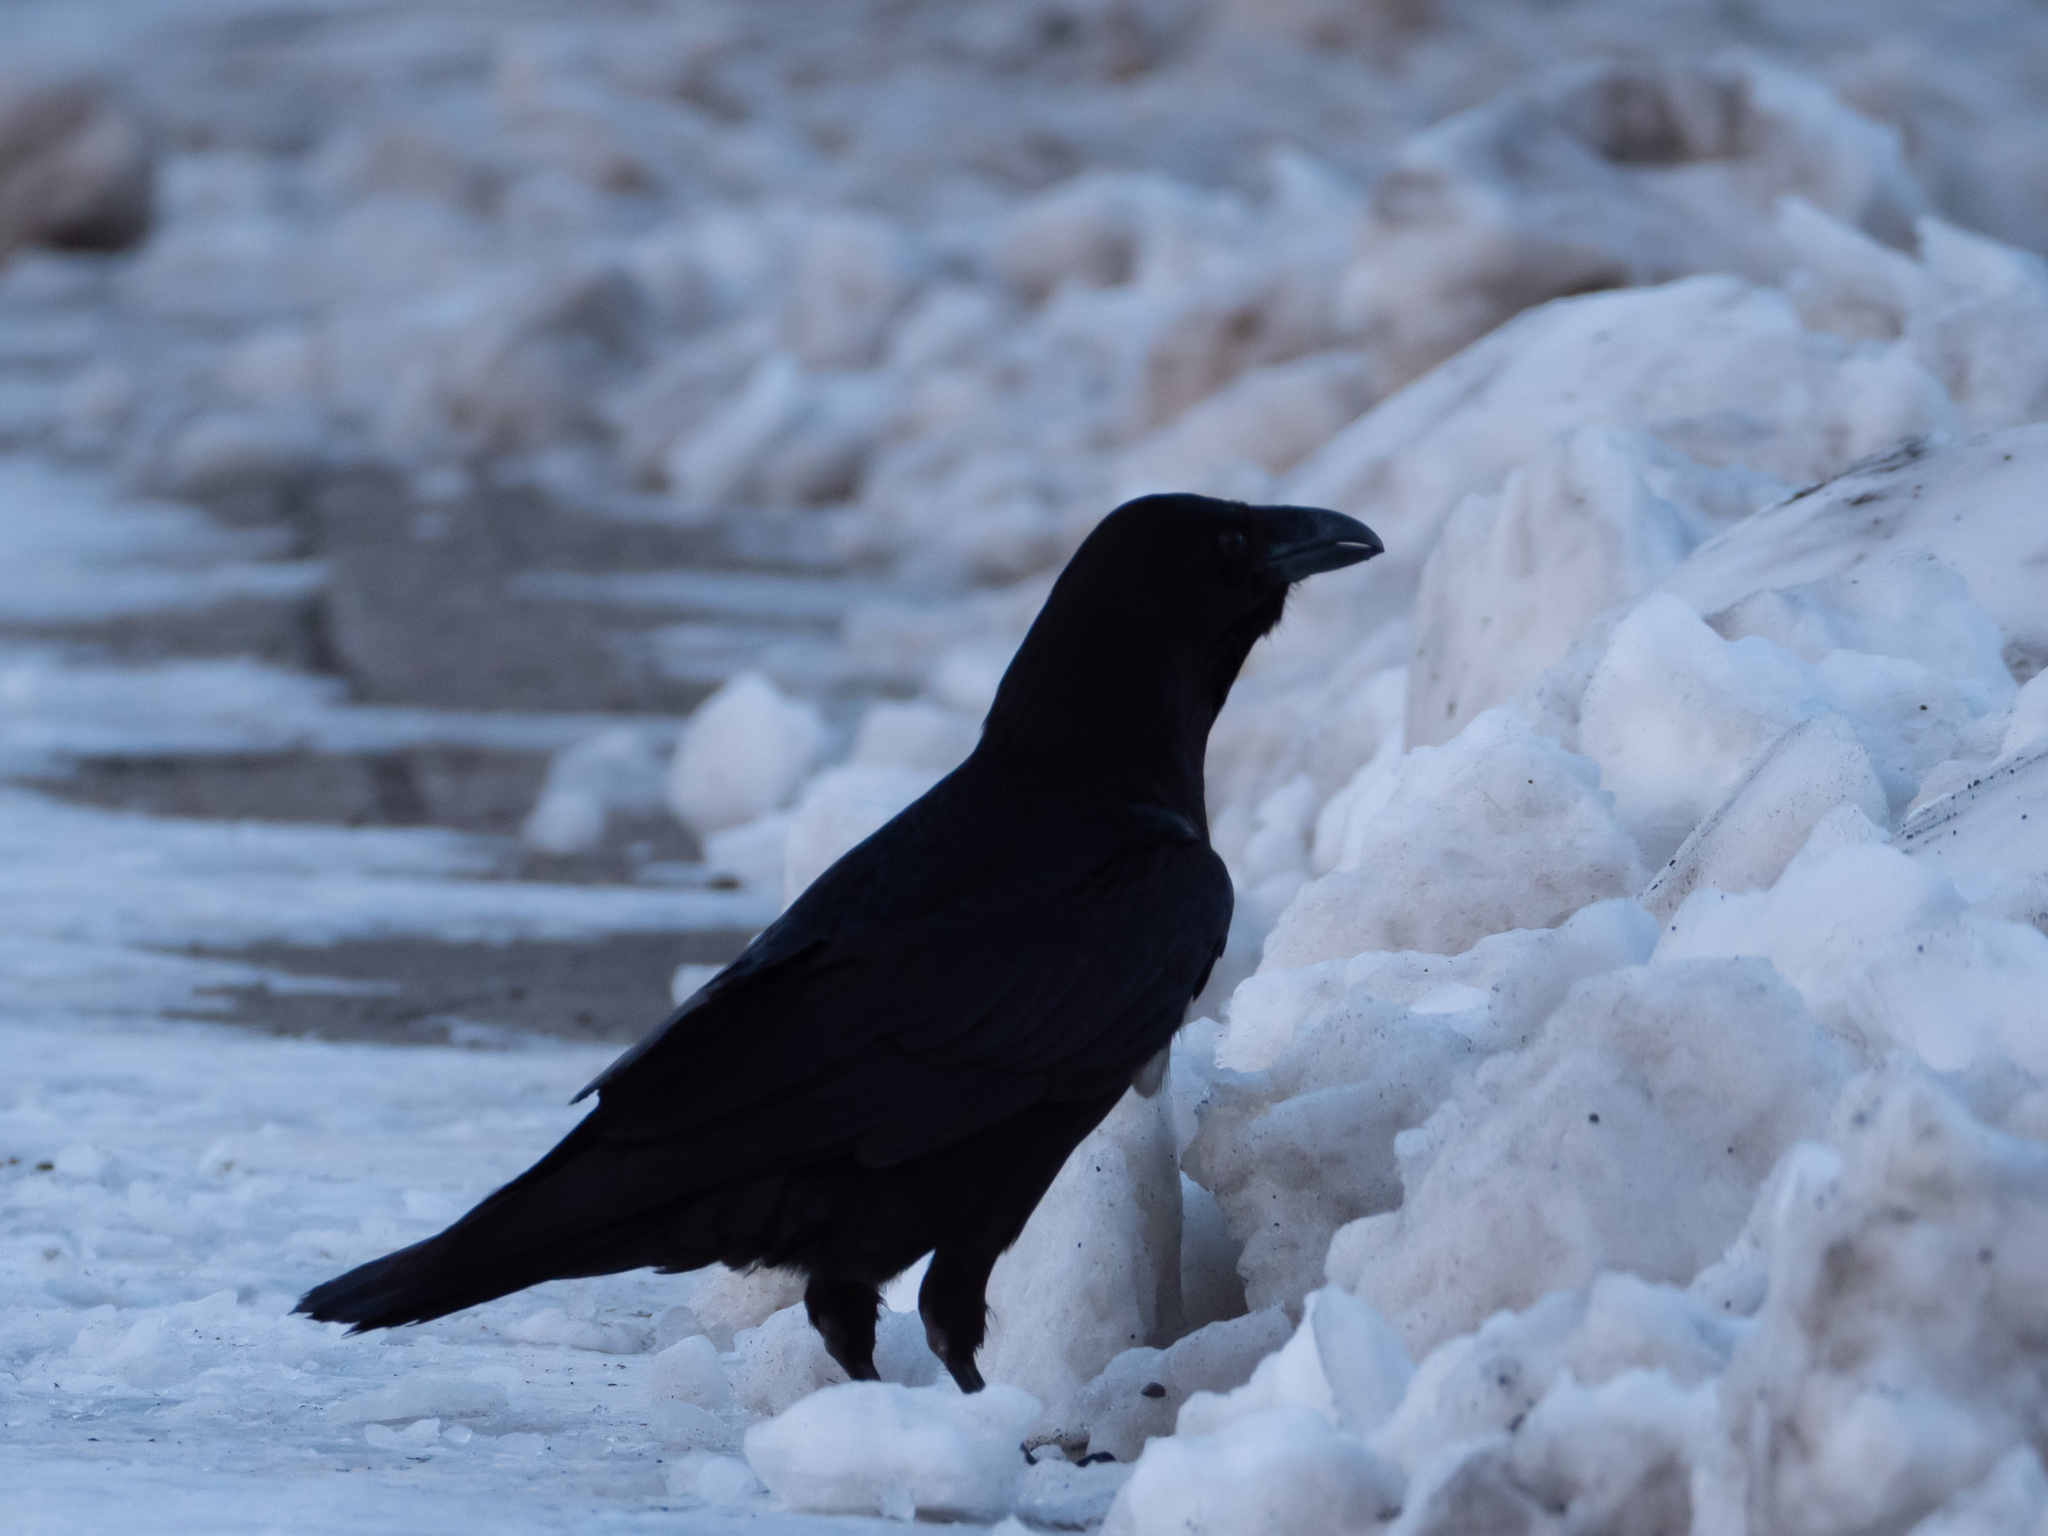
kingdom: Animalia
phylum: Chordata
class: Aves
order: Passeriformes
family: Corvidae
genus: Corvus
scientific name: Corvus corax
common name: Common raven
